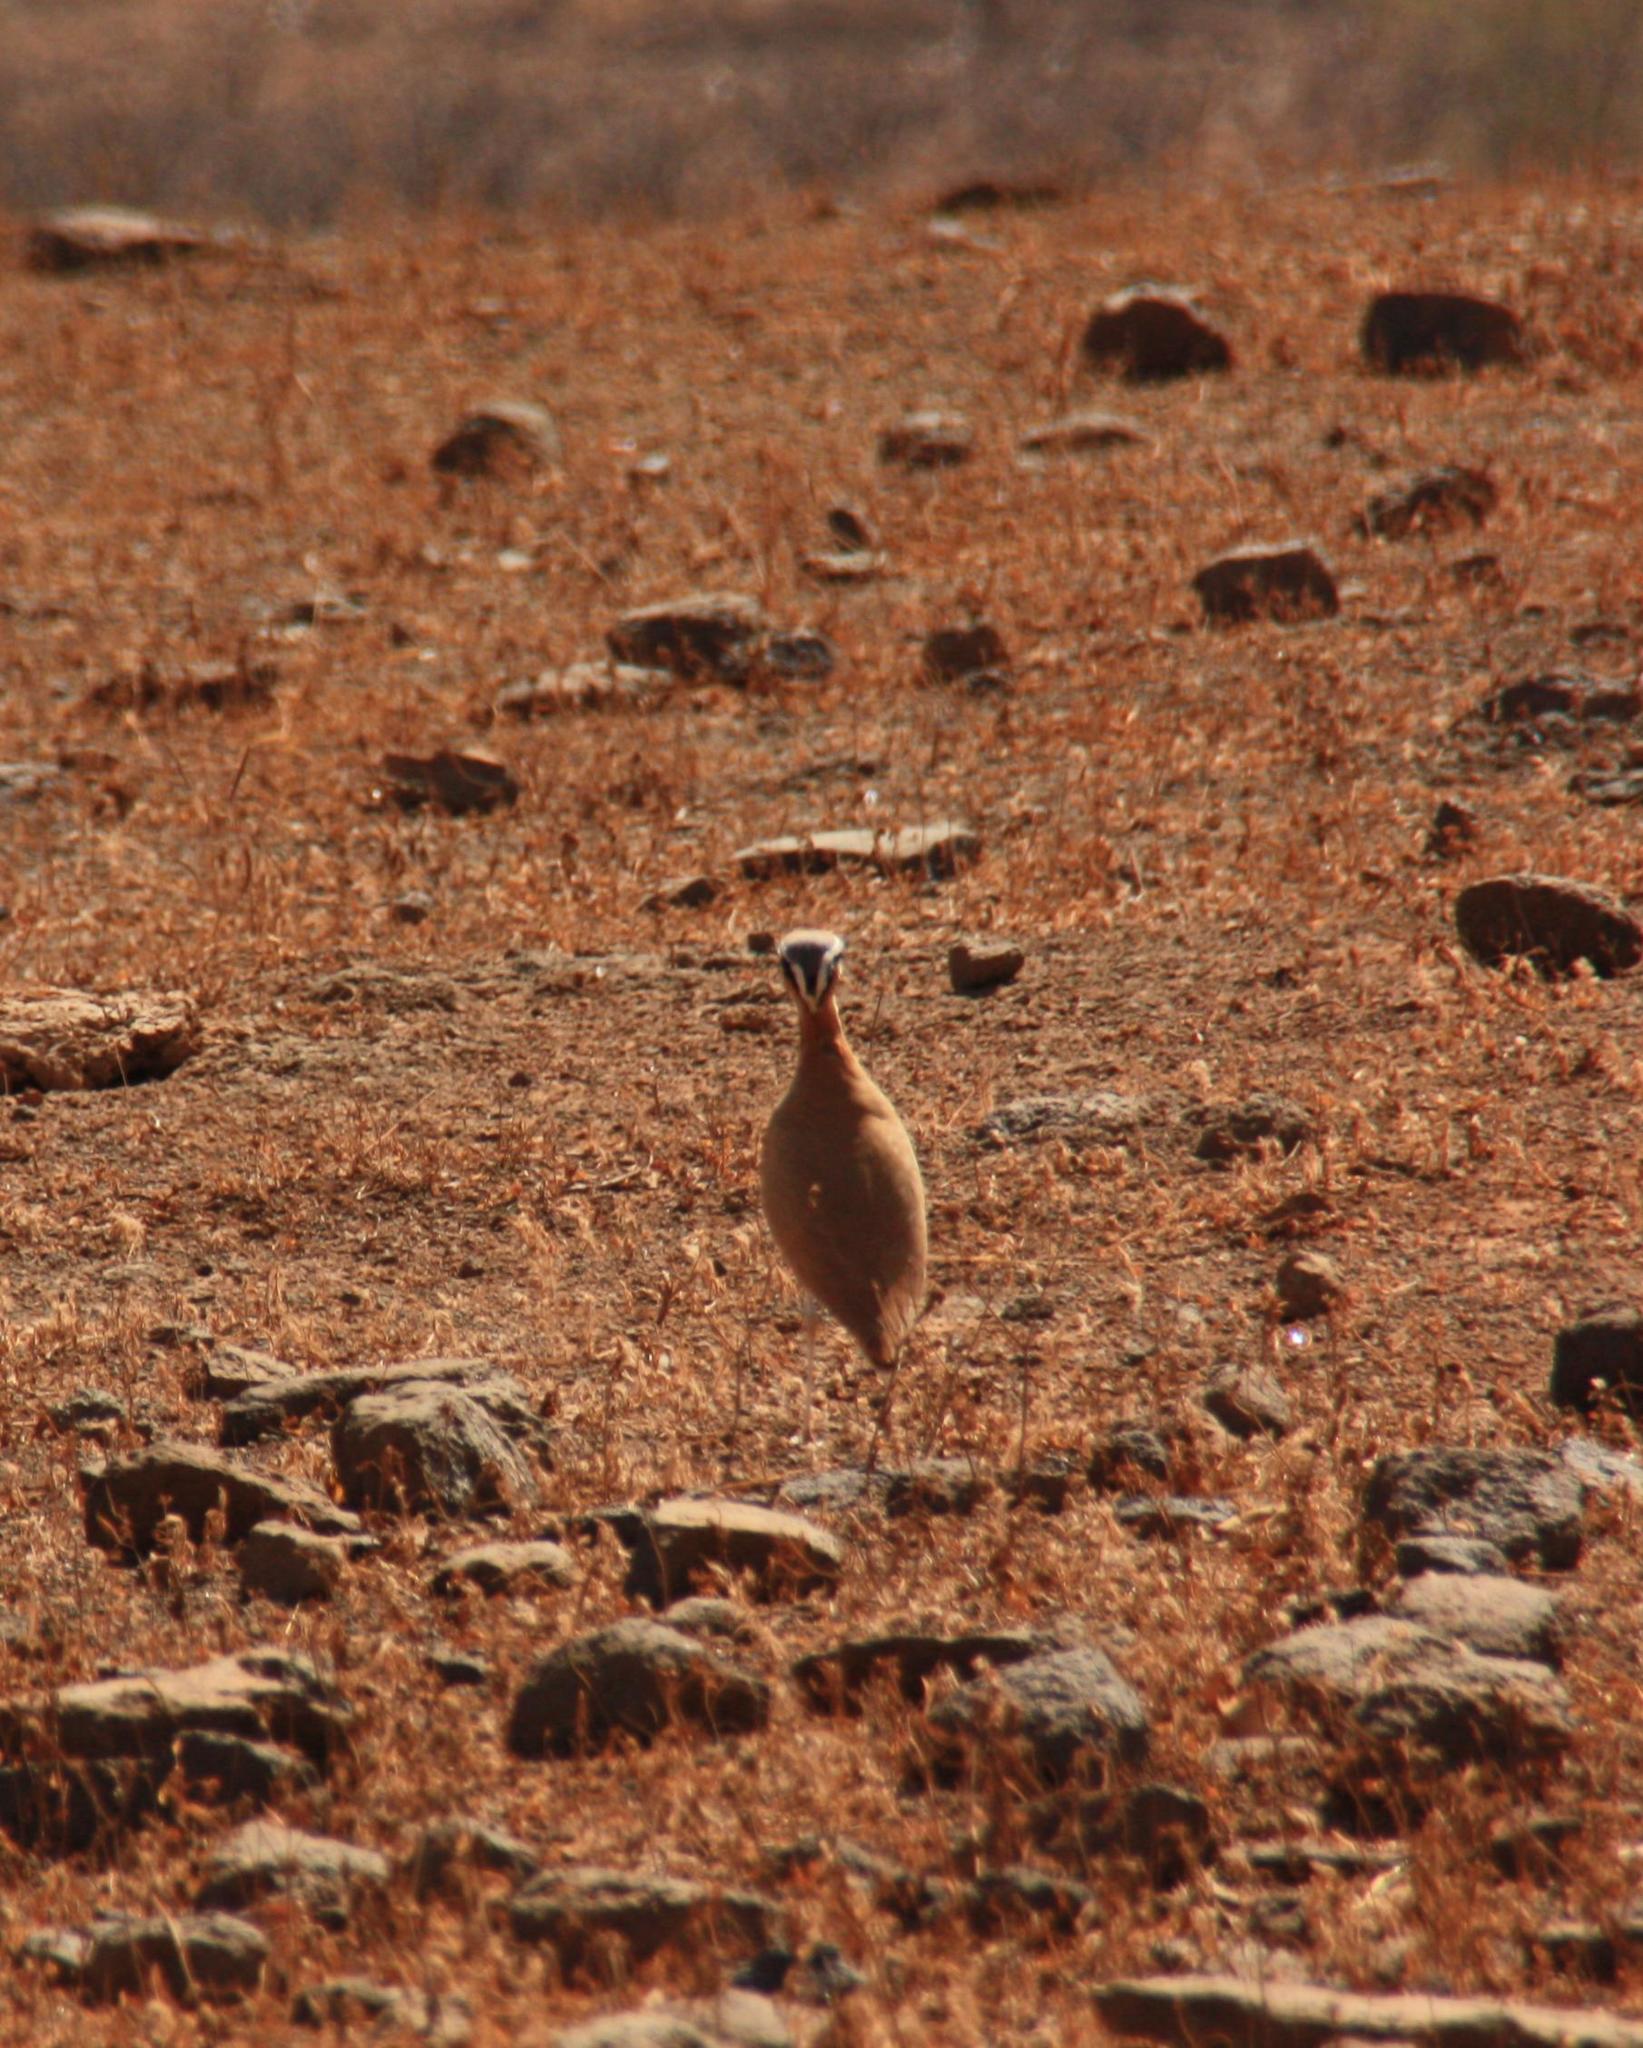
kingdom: Animalia
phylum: Chordata
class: Aves
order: Charadriiformes
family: Glareolidae
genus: Cursorius
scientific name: Cursorius cursor
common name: Cream-colored courser
